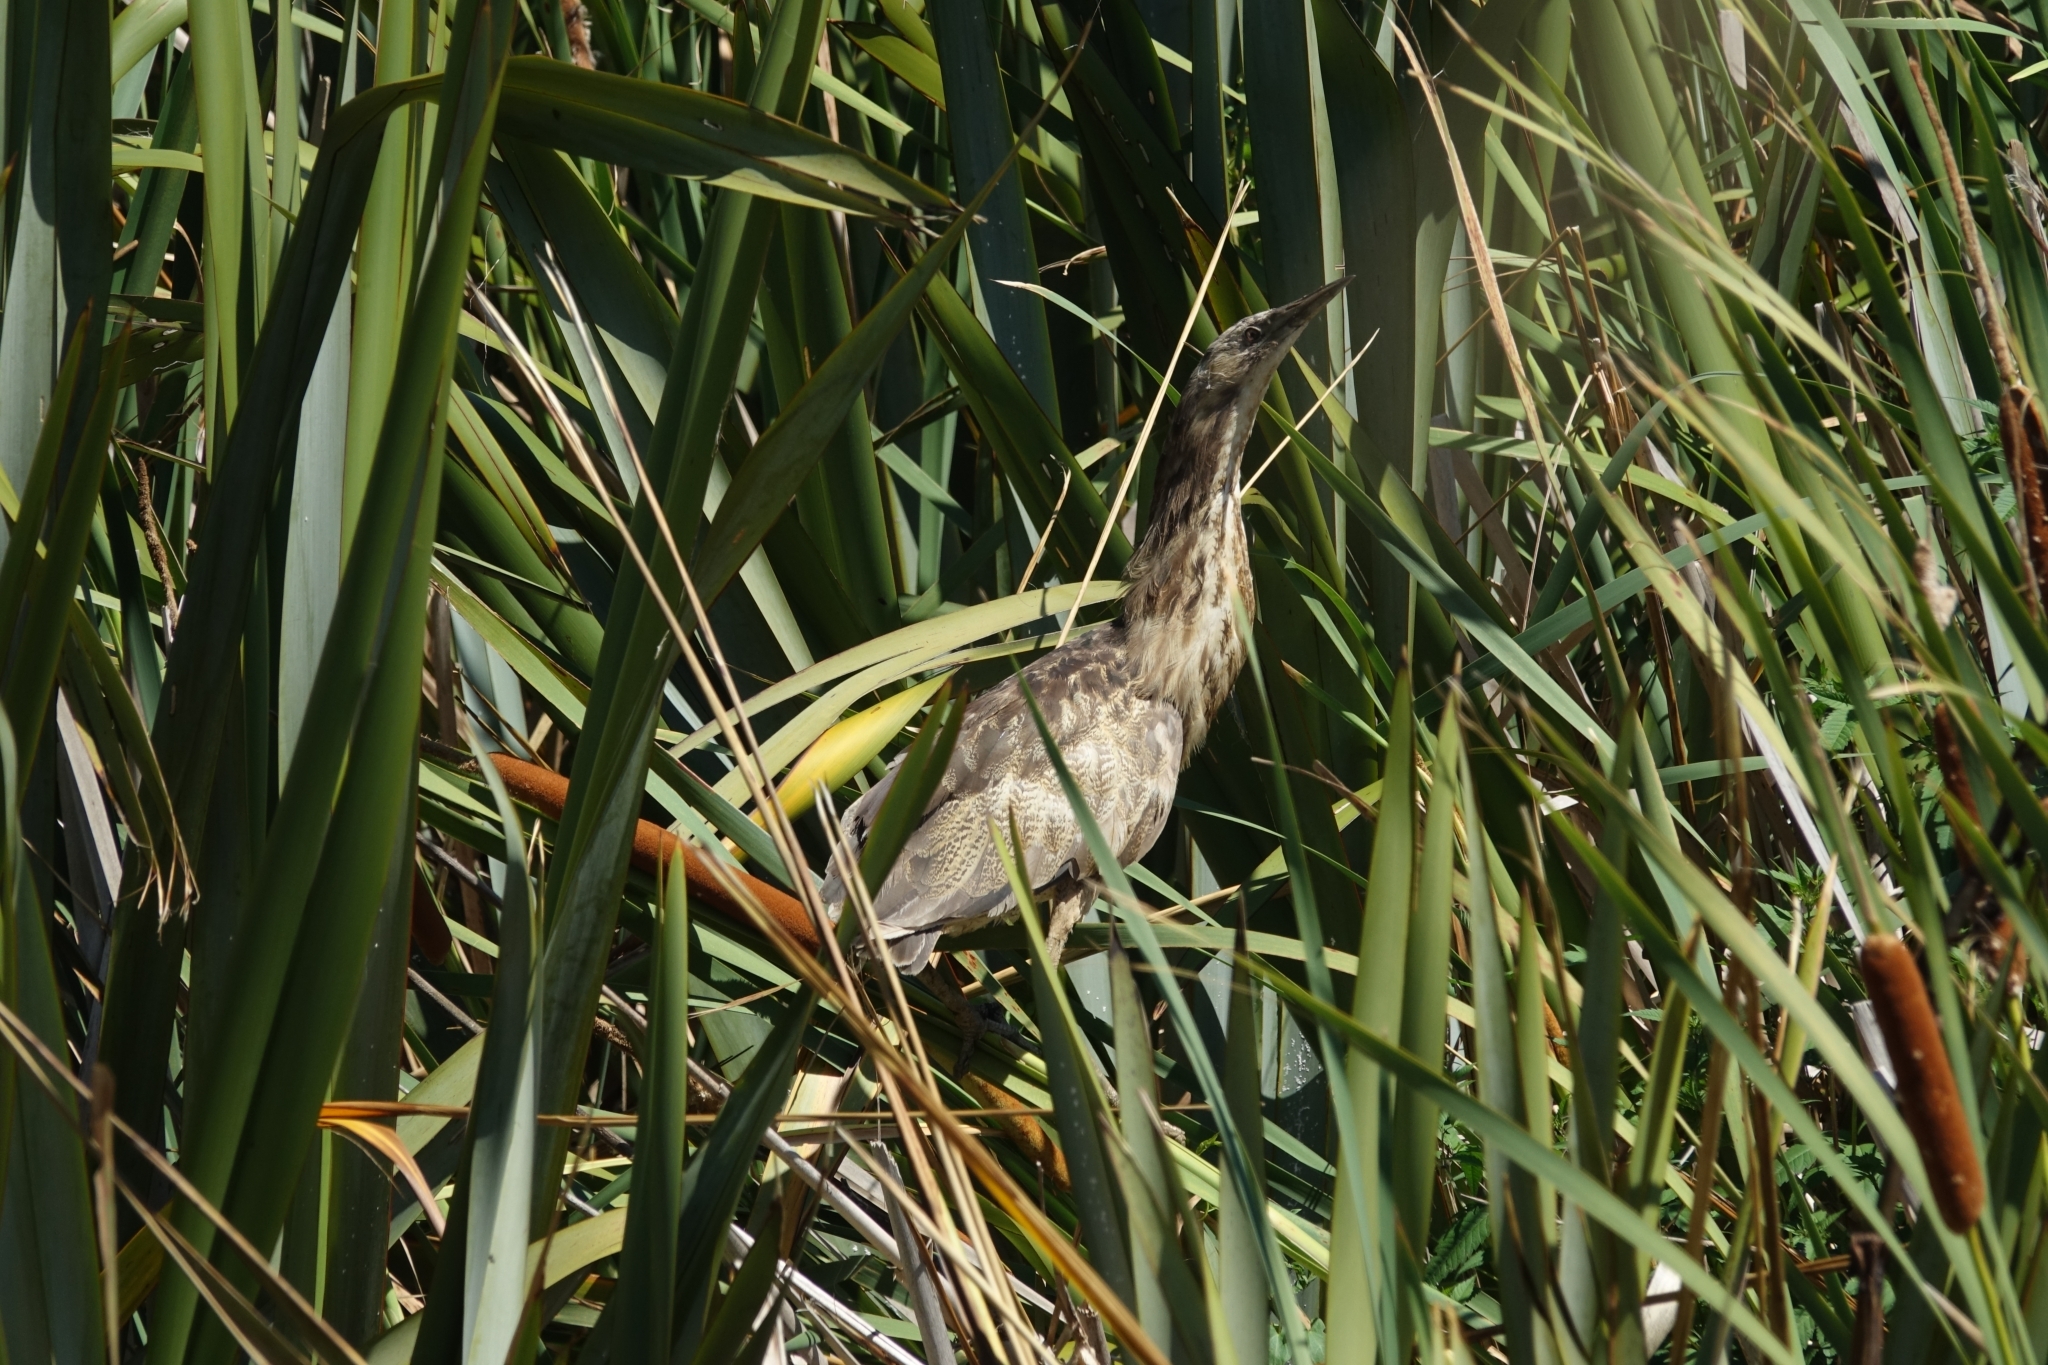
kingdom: Animalia
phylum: Chordata
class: Aves
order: Pelecaniformes
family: Ardeidae
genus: Botaurus
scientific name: Botaurus poiciloptilus
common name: Australasian bittern
